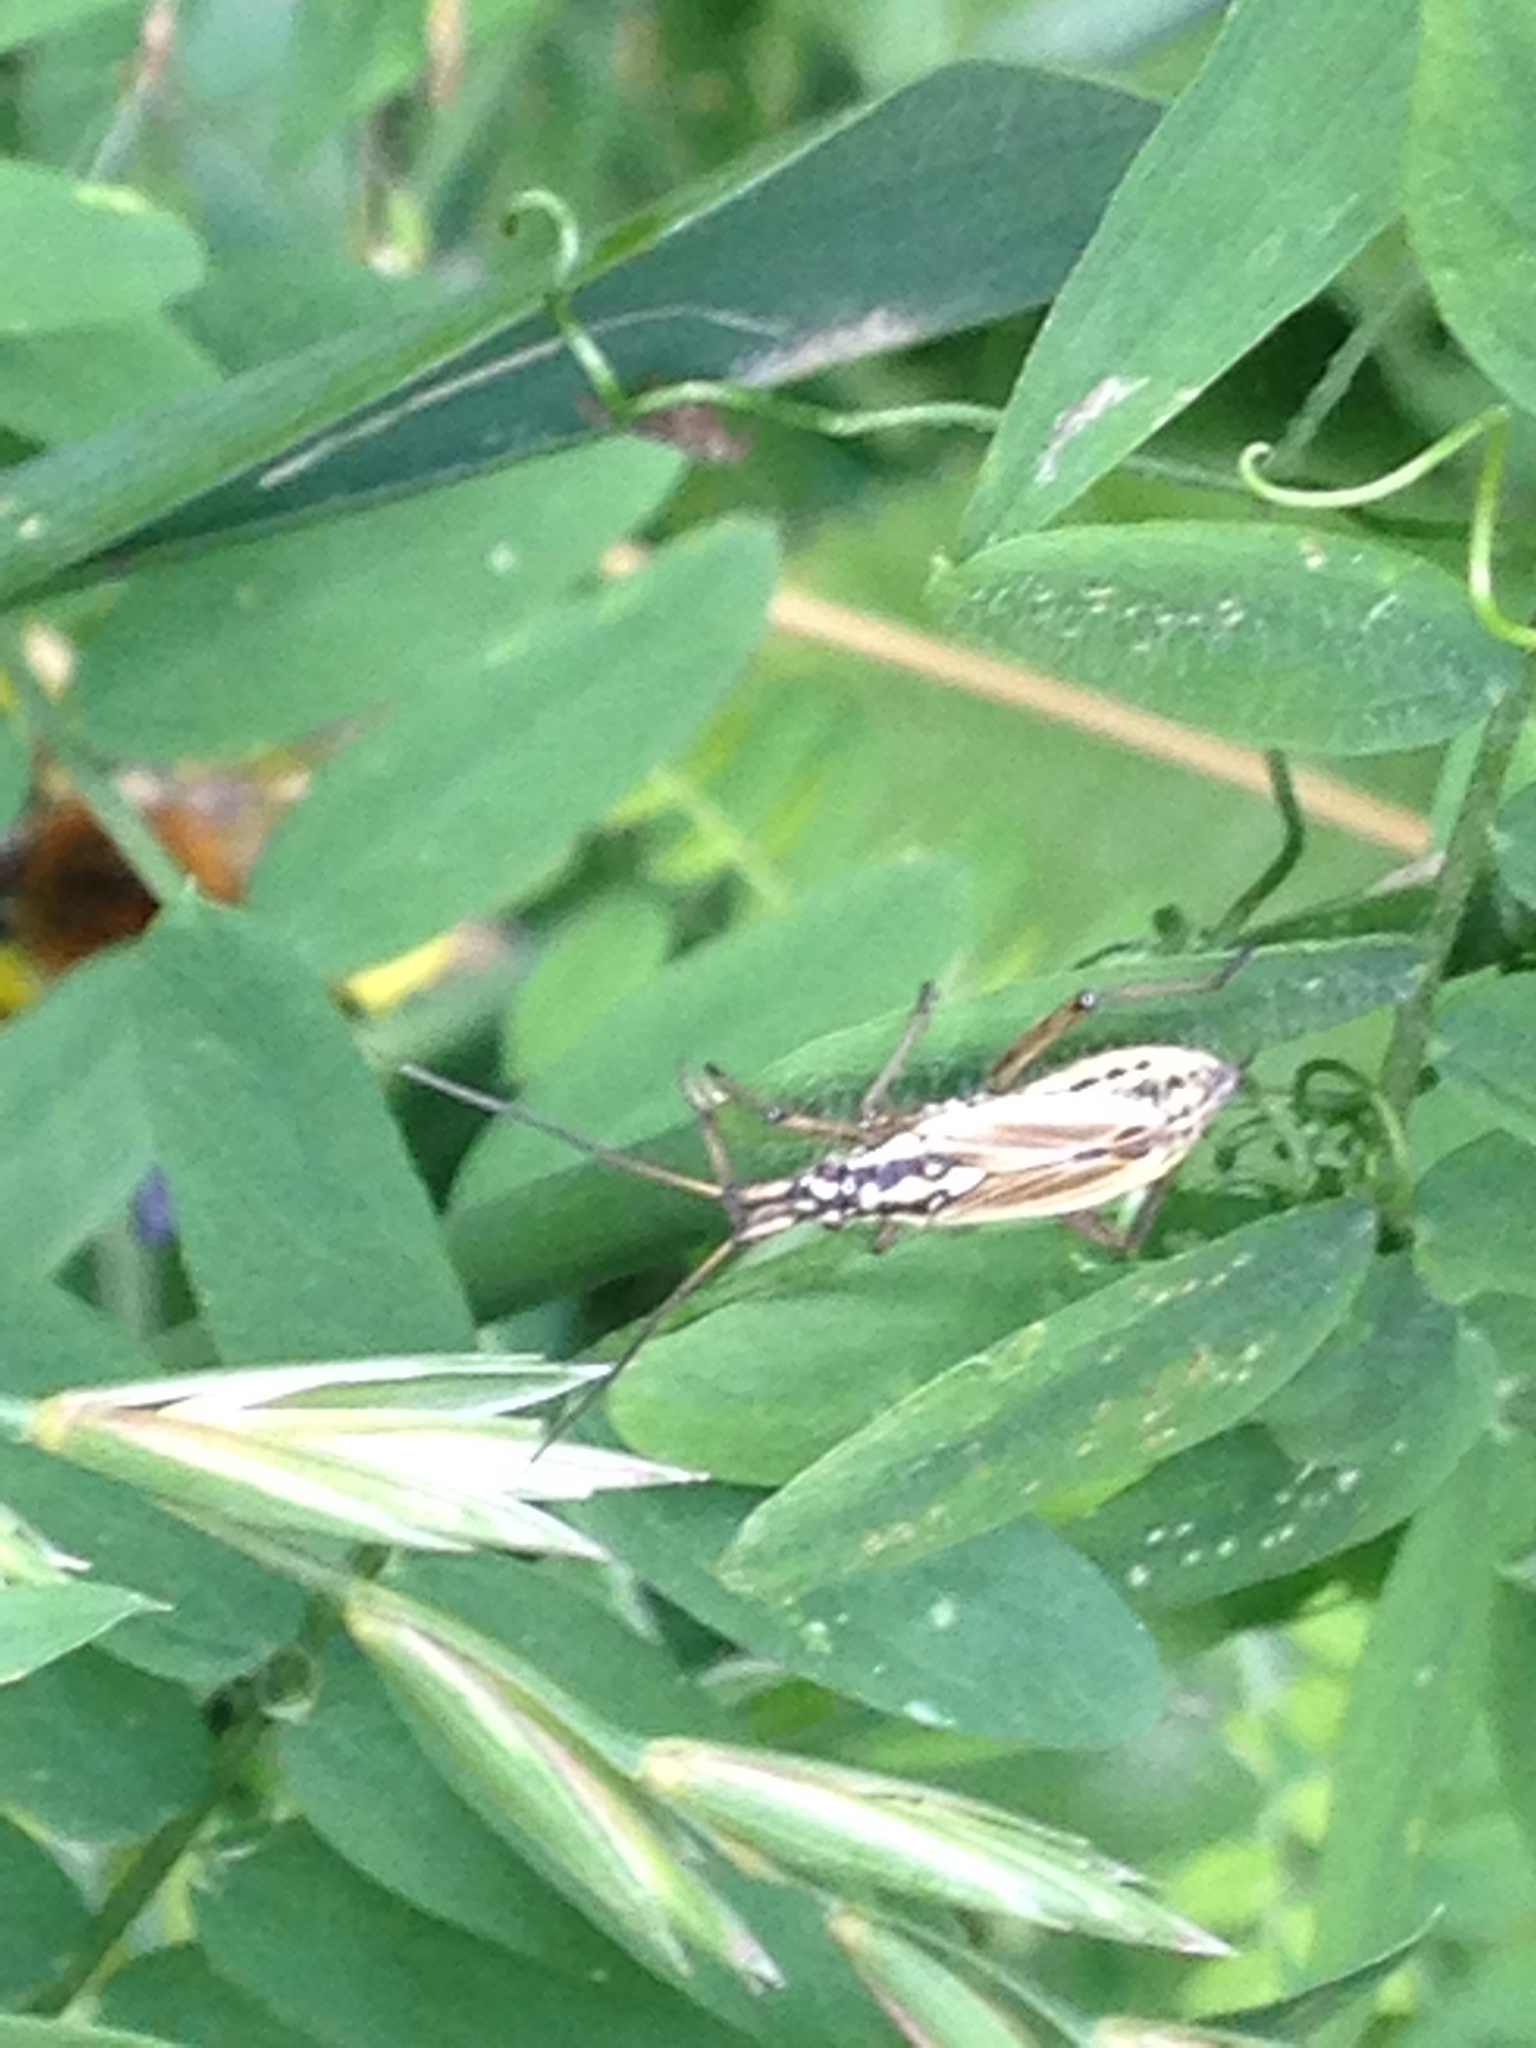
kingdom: Animalia
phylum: Arthropoda
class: Insecta
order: Hemiptera
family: Miridae
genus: Leptopterna
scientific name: Leptopterna dolabrata
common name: Meadow plant bug
